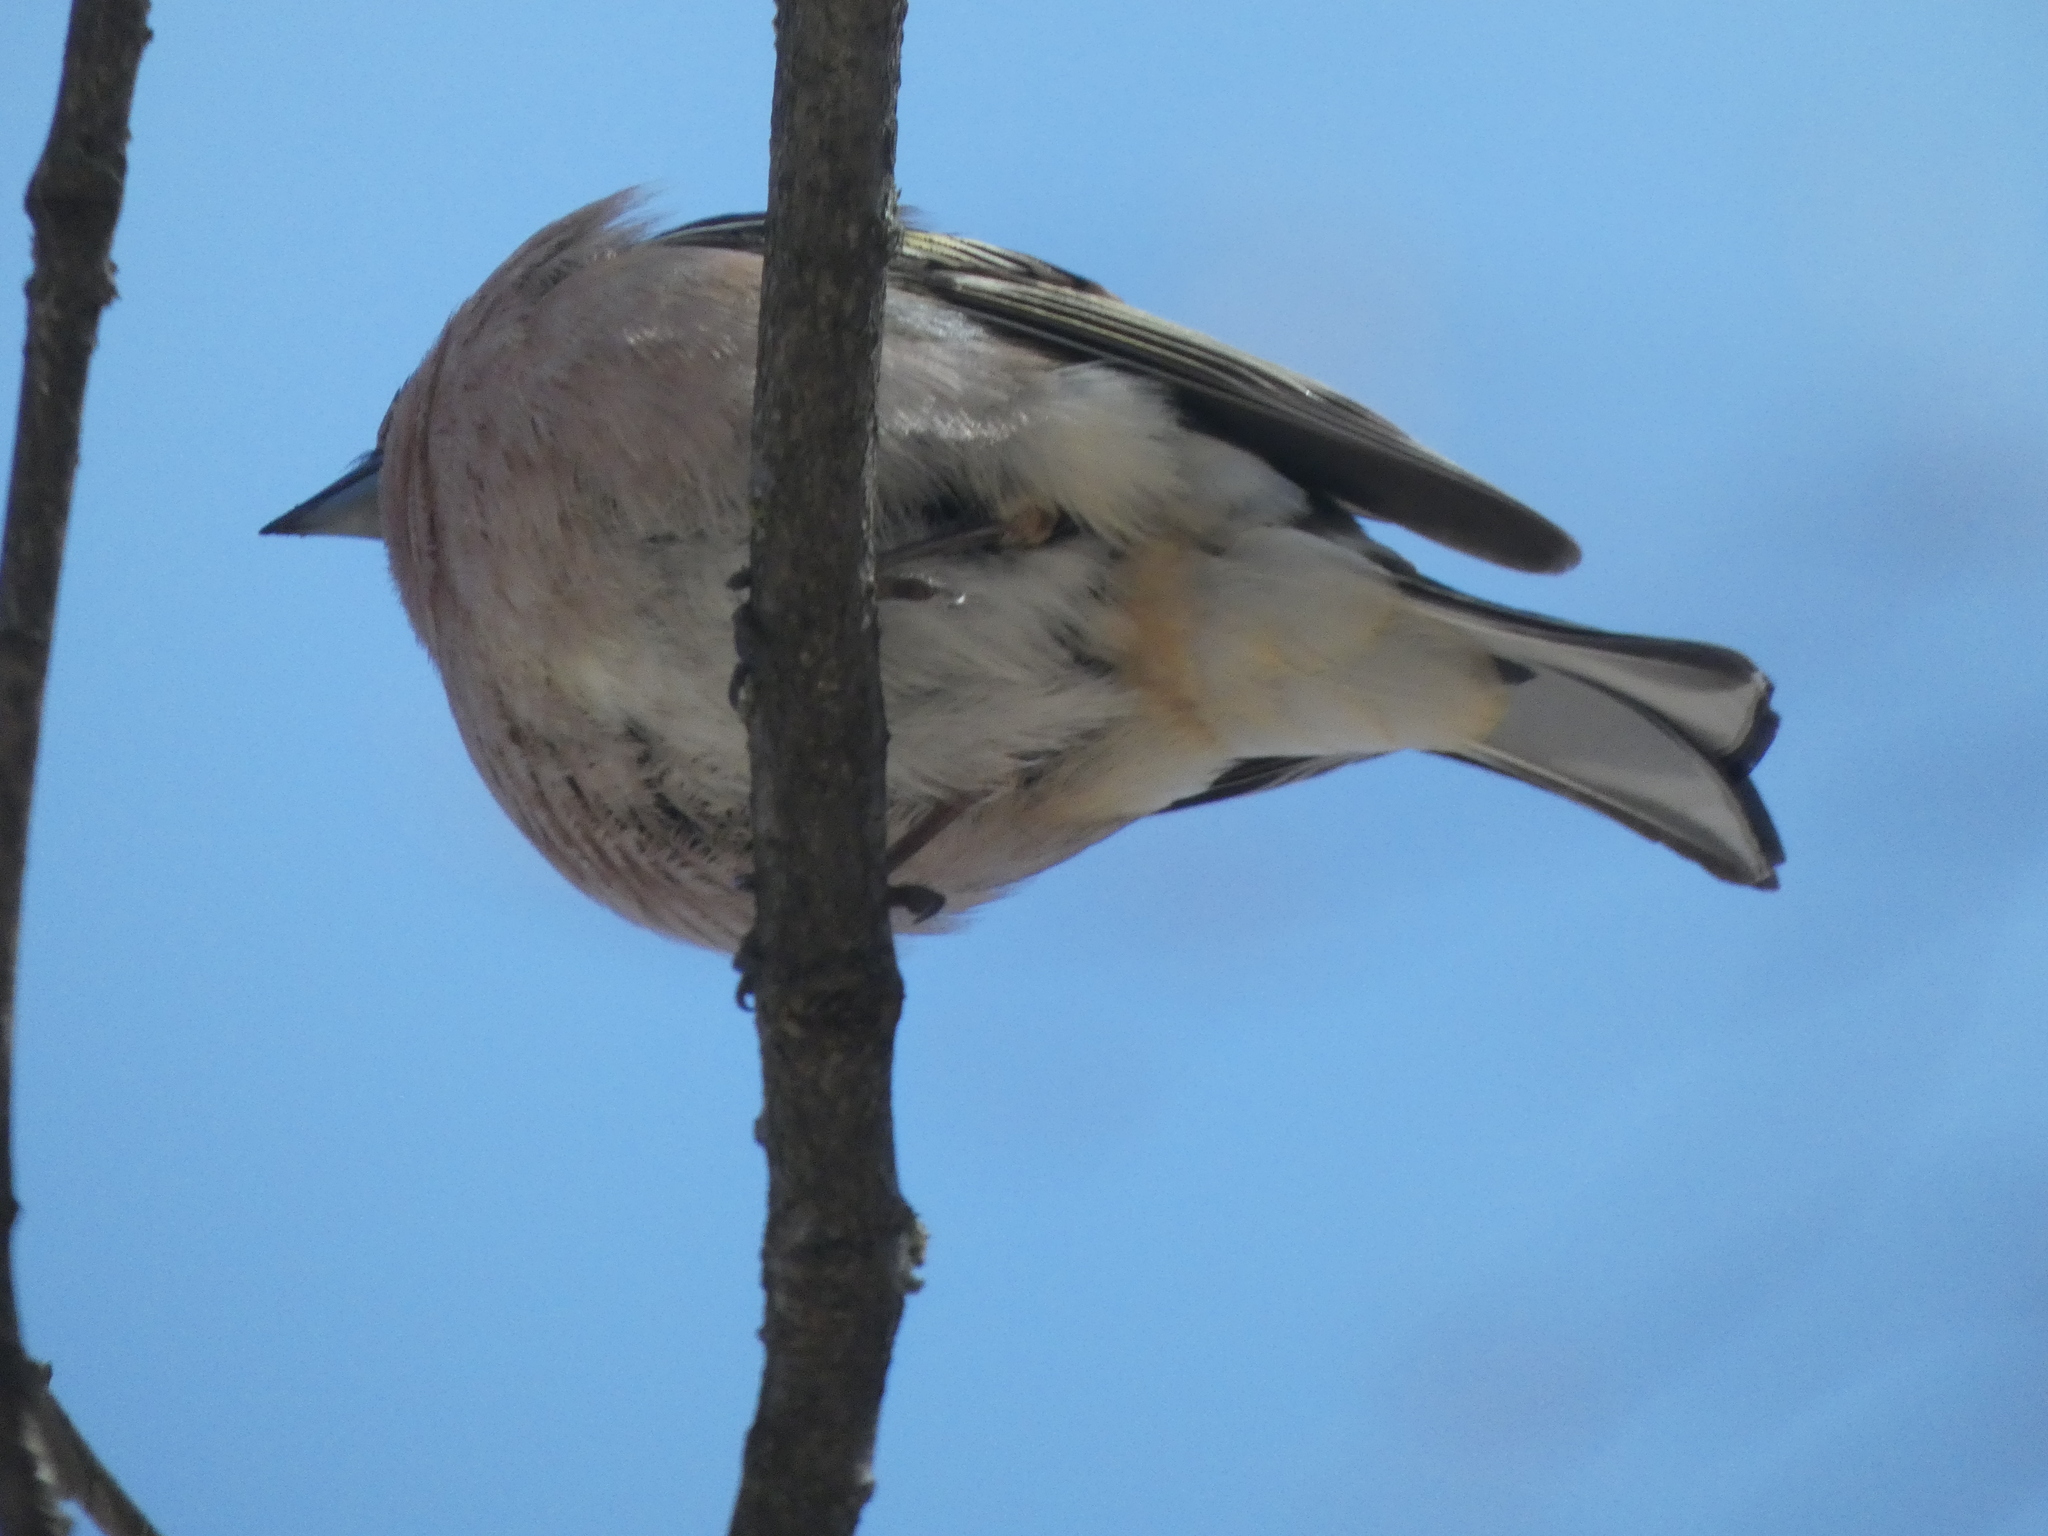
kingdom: Animalia
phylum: Chordata
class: Aves
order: Passeriformes
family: Fringillidae
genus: Fringilla
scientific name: Fringilla coelebs
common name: Common chaffinch
